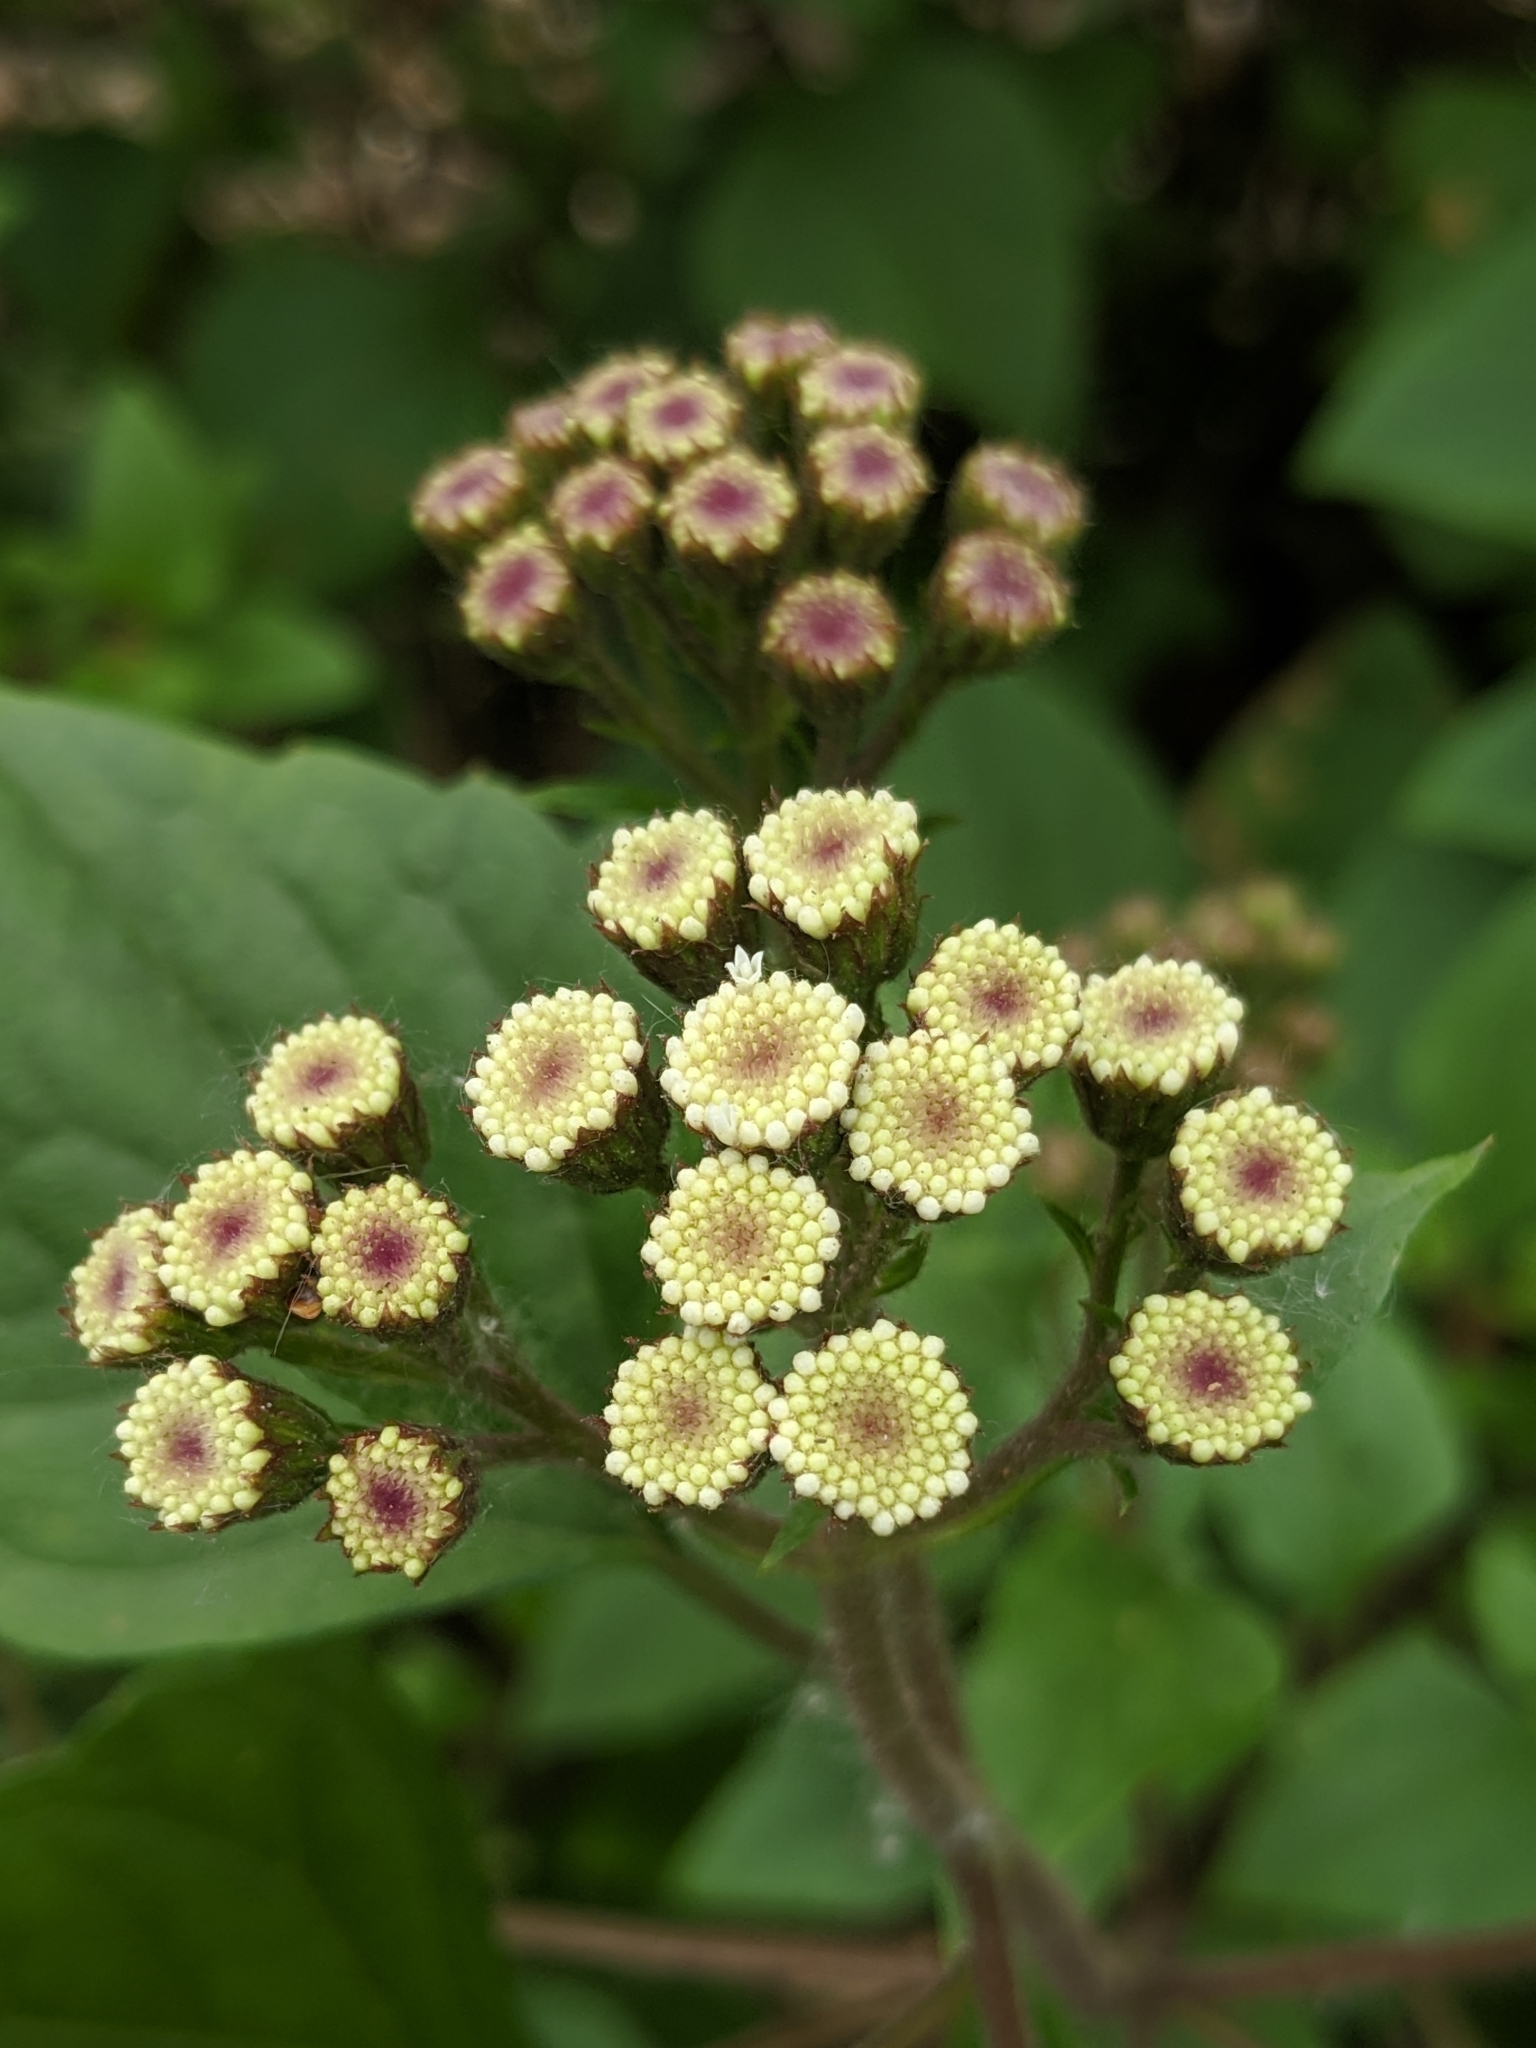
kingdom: Plantae
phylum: Tracheophyta
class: Magnoliopsida
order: Asterales
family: Asteraceae
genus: Ageratina
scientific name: Ageratina adenophora
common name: Sticky snakeroot
